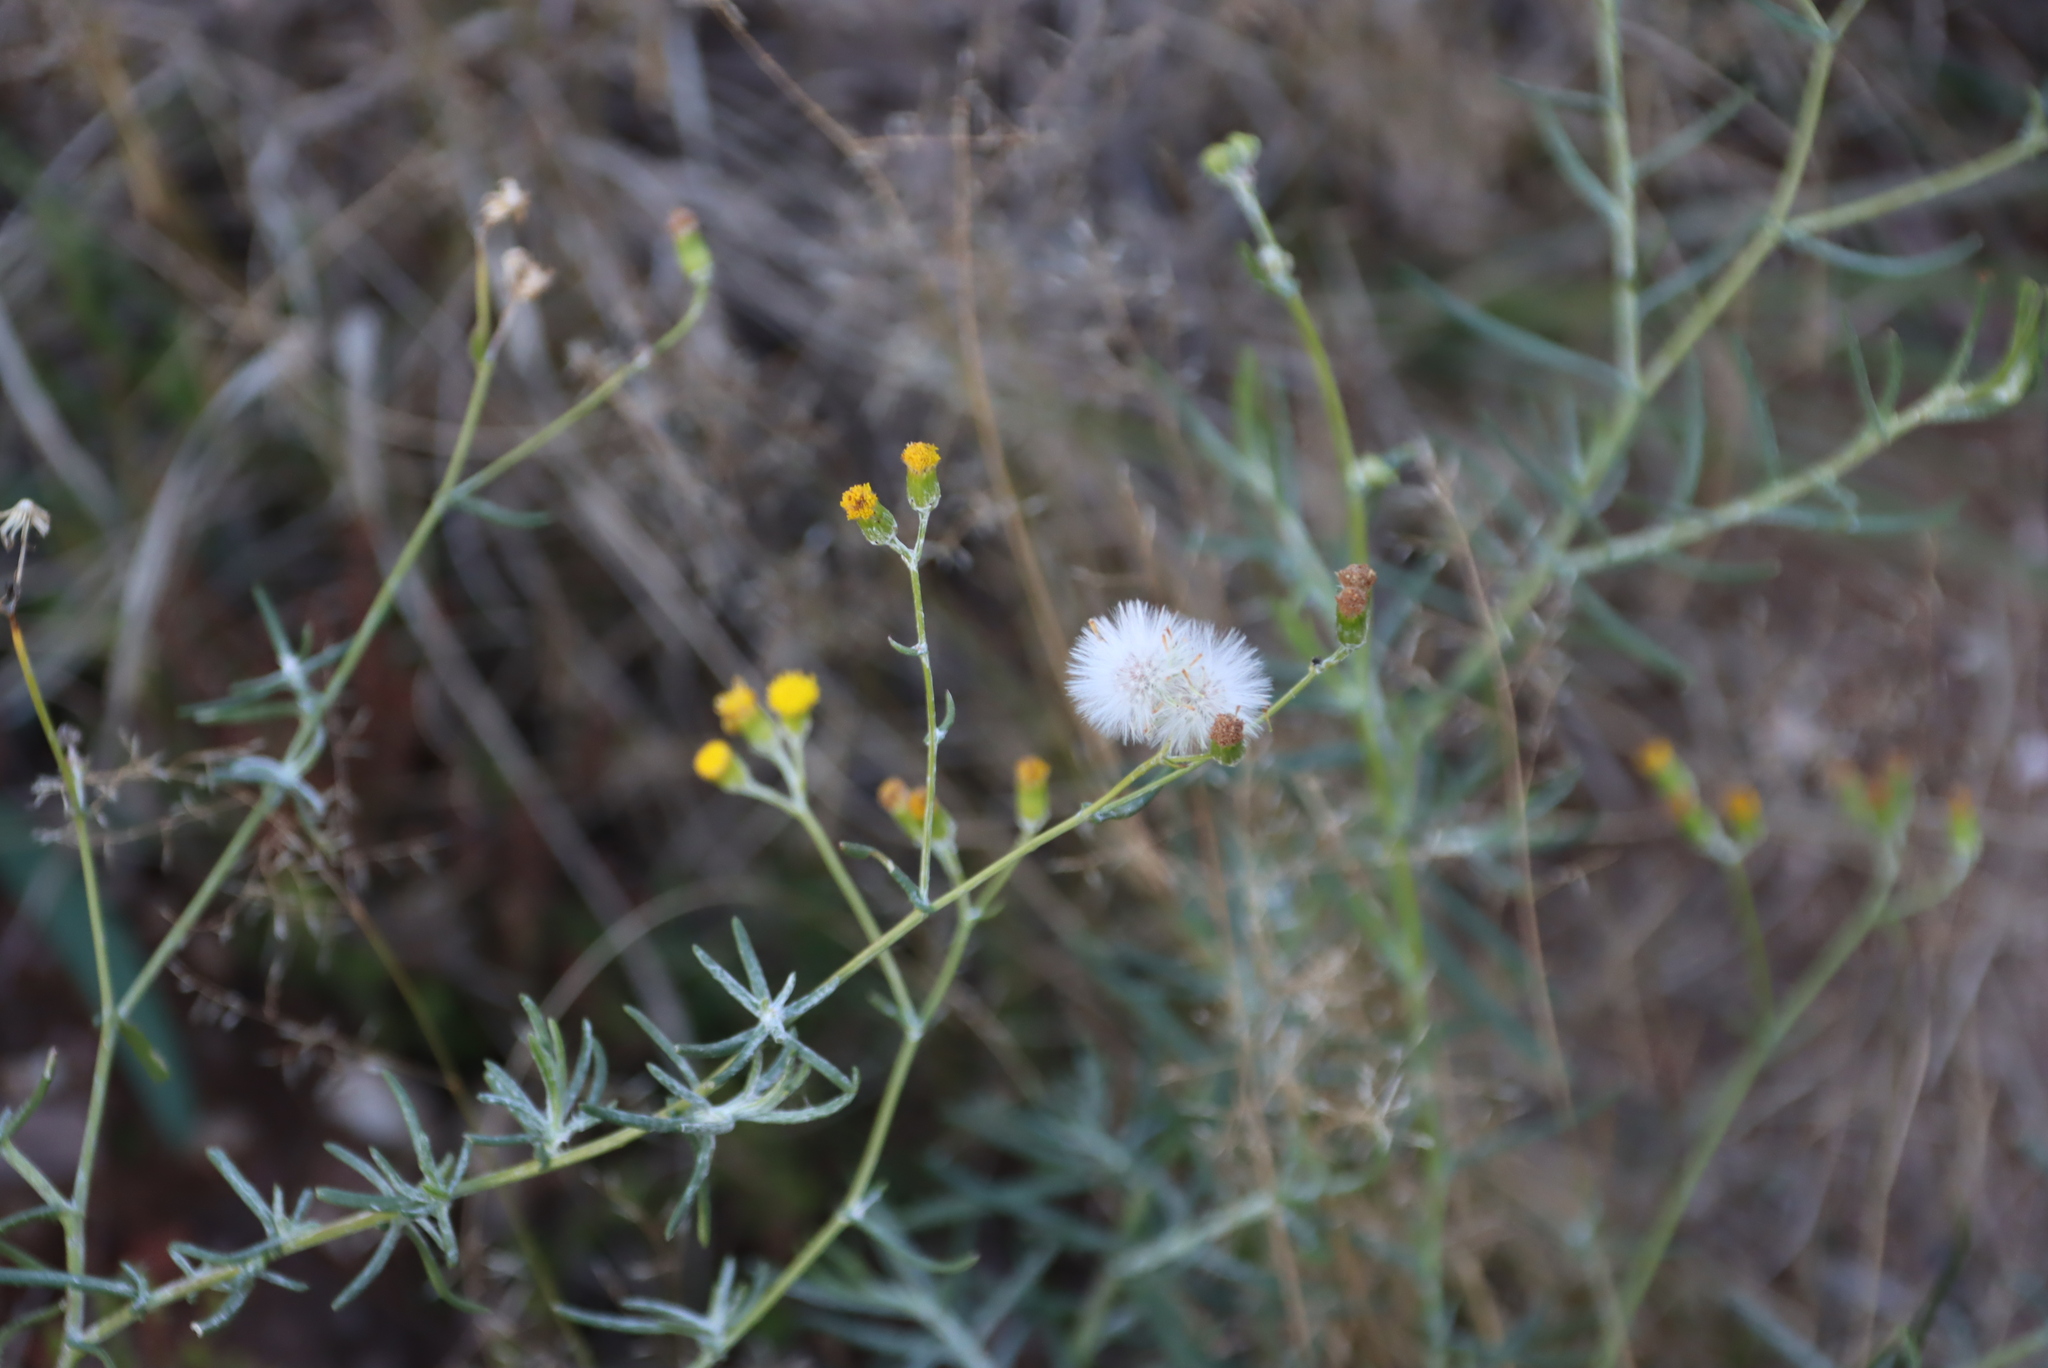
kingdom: Plantae
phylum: Tracheophyta
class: Magnoliopsida
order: Asterales
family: Asteraceae
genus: Senecio
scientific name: Senecio niveus
